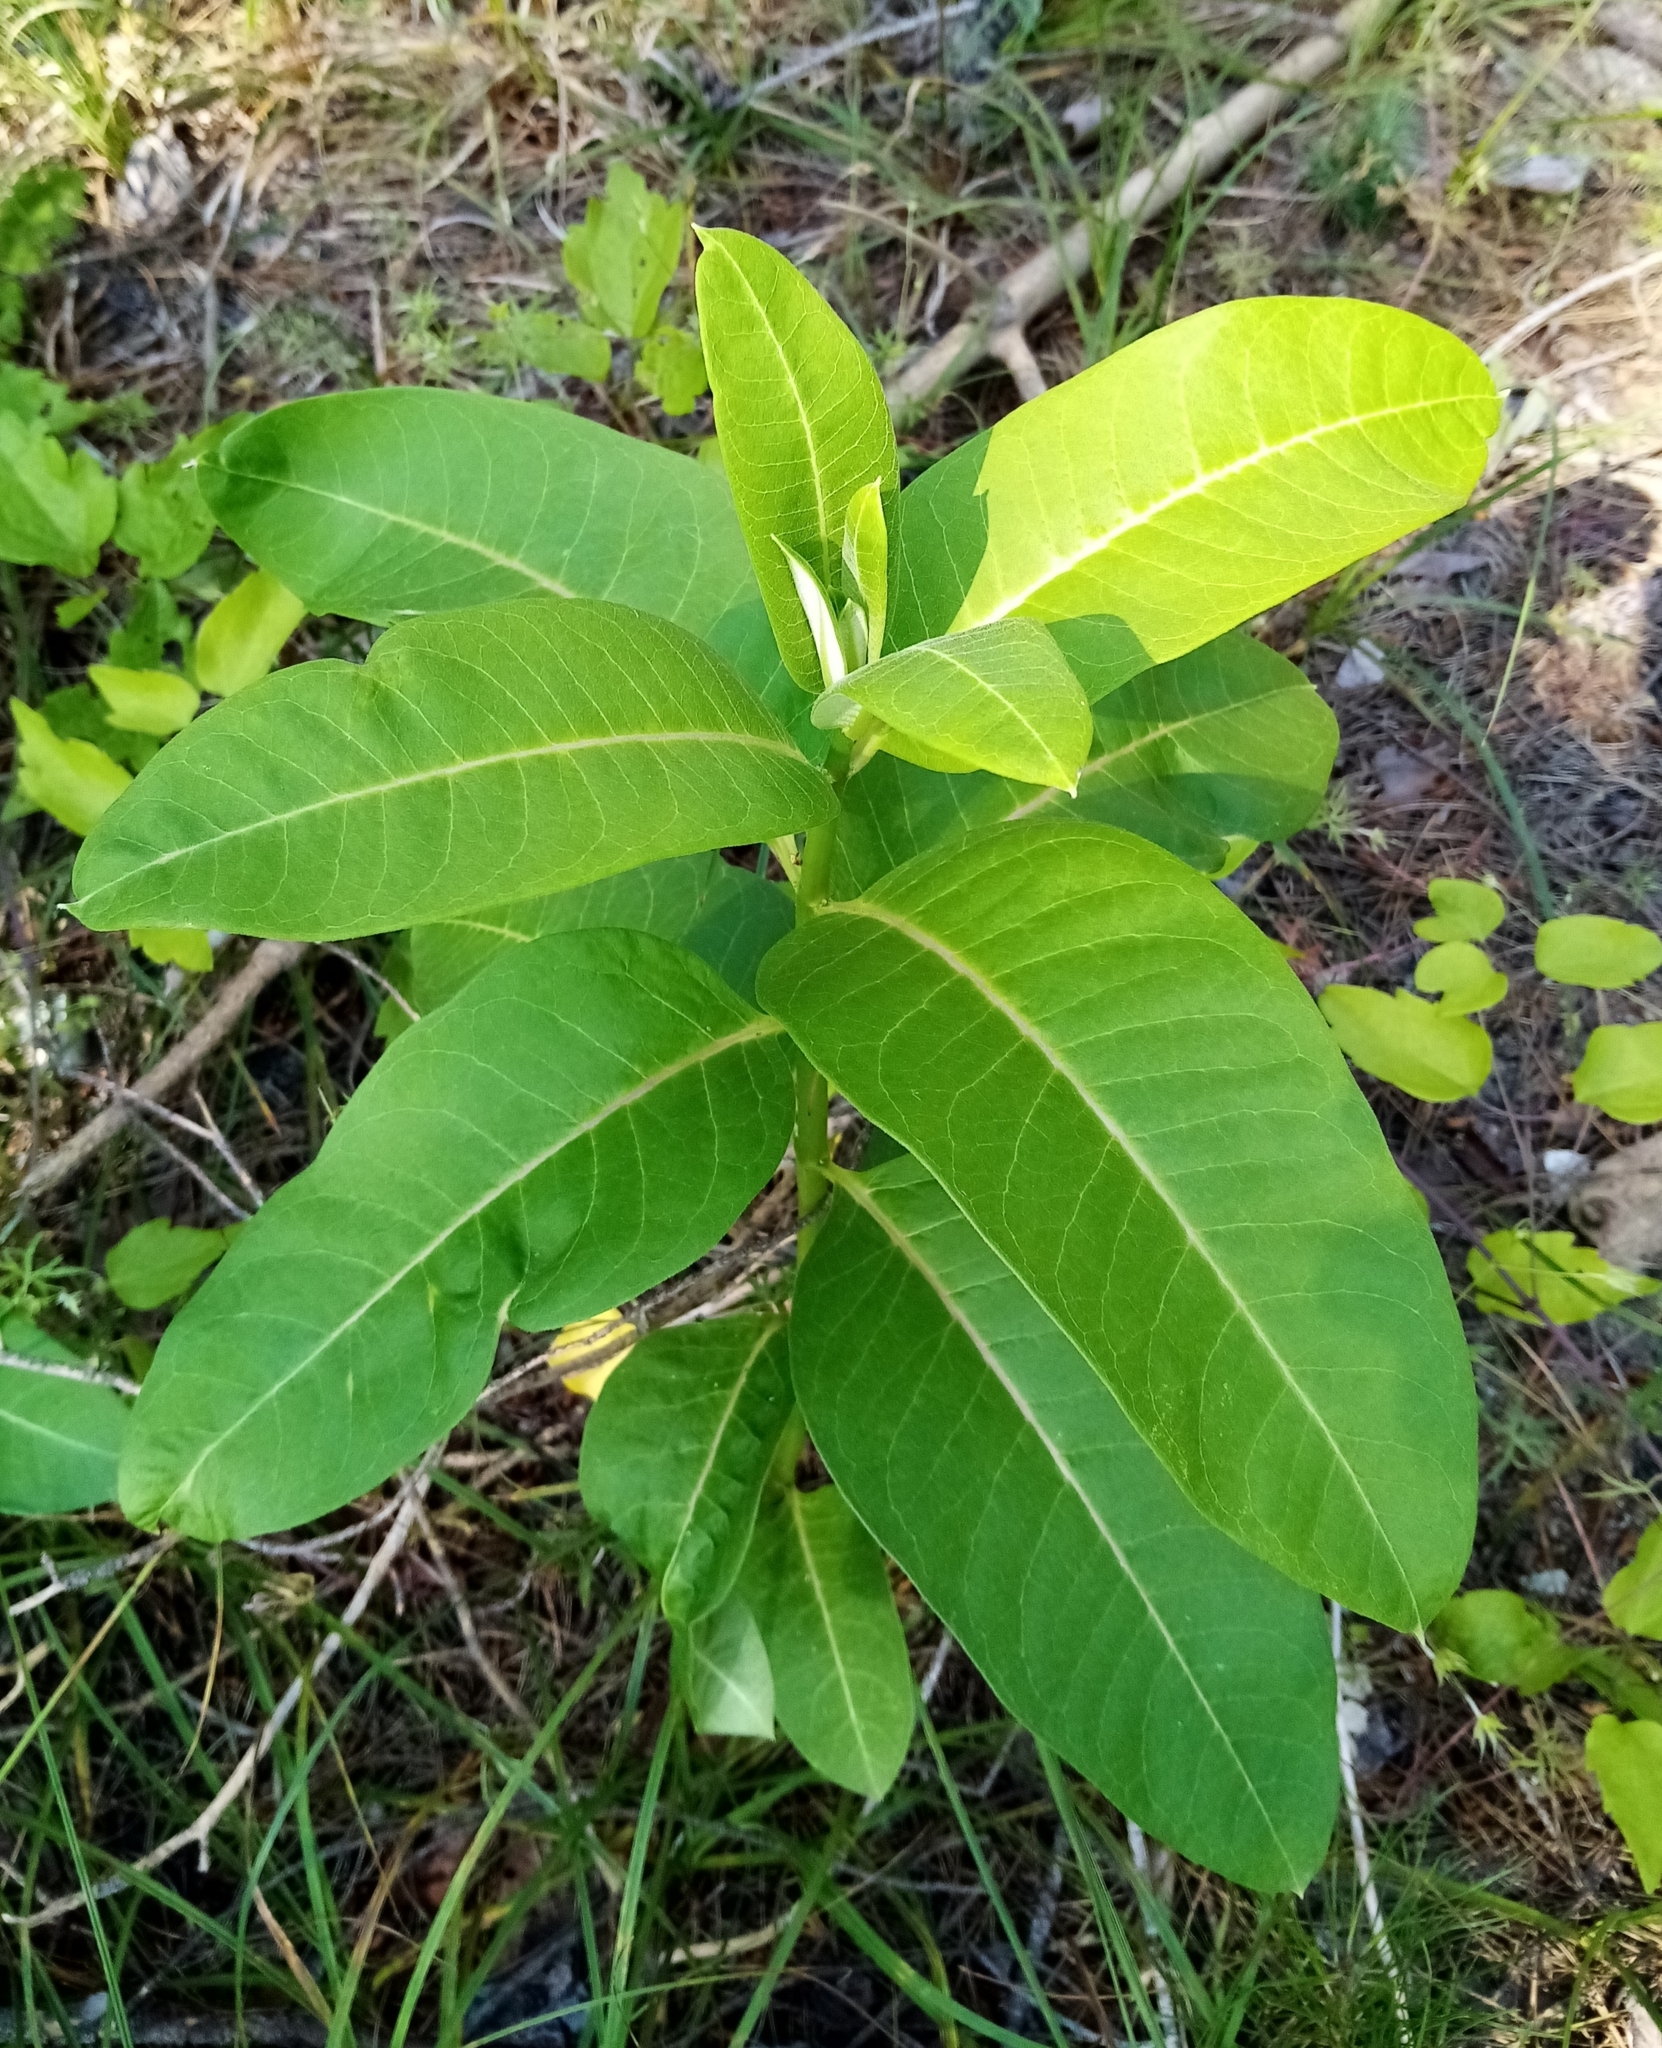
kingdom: Plantae
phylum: Tracheophyta
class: Magnoliopsida
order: Gentianales
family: Apocynaceae
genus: Asclepias
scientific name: Asclepias syriaca
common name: Common milkweed
